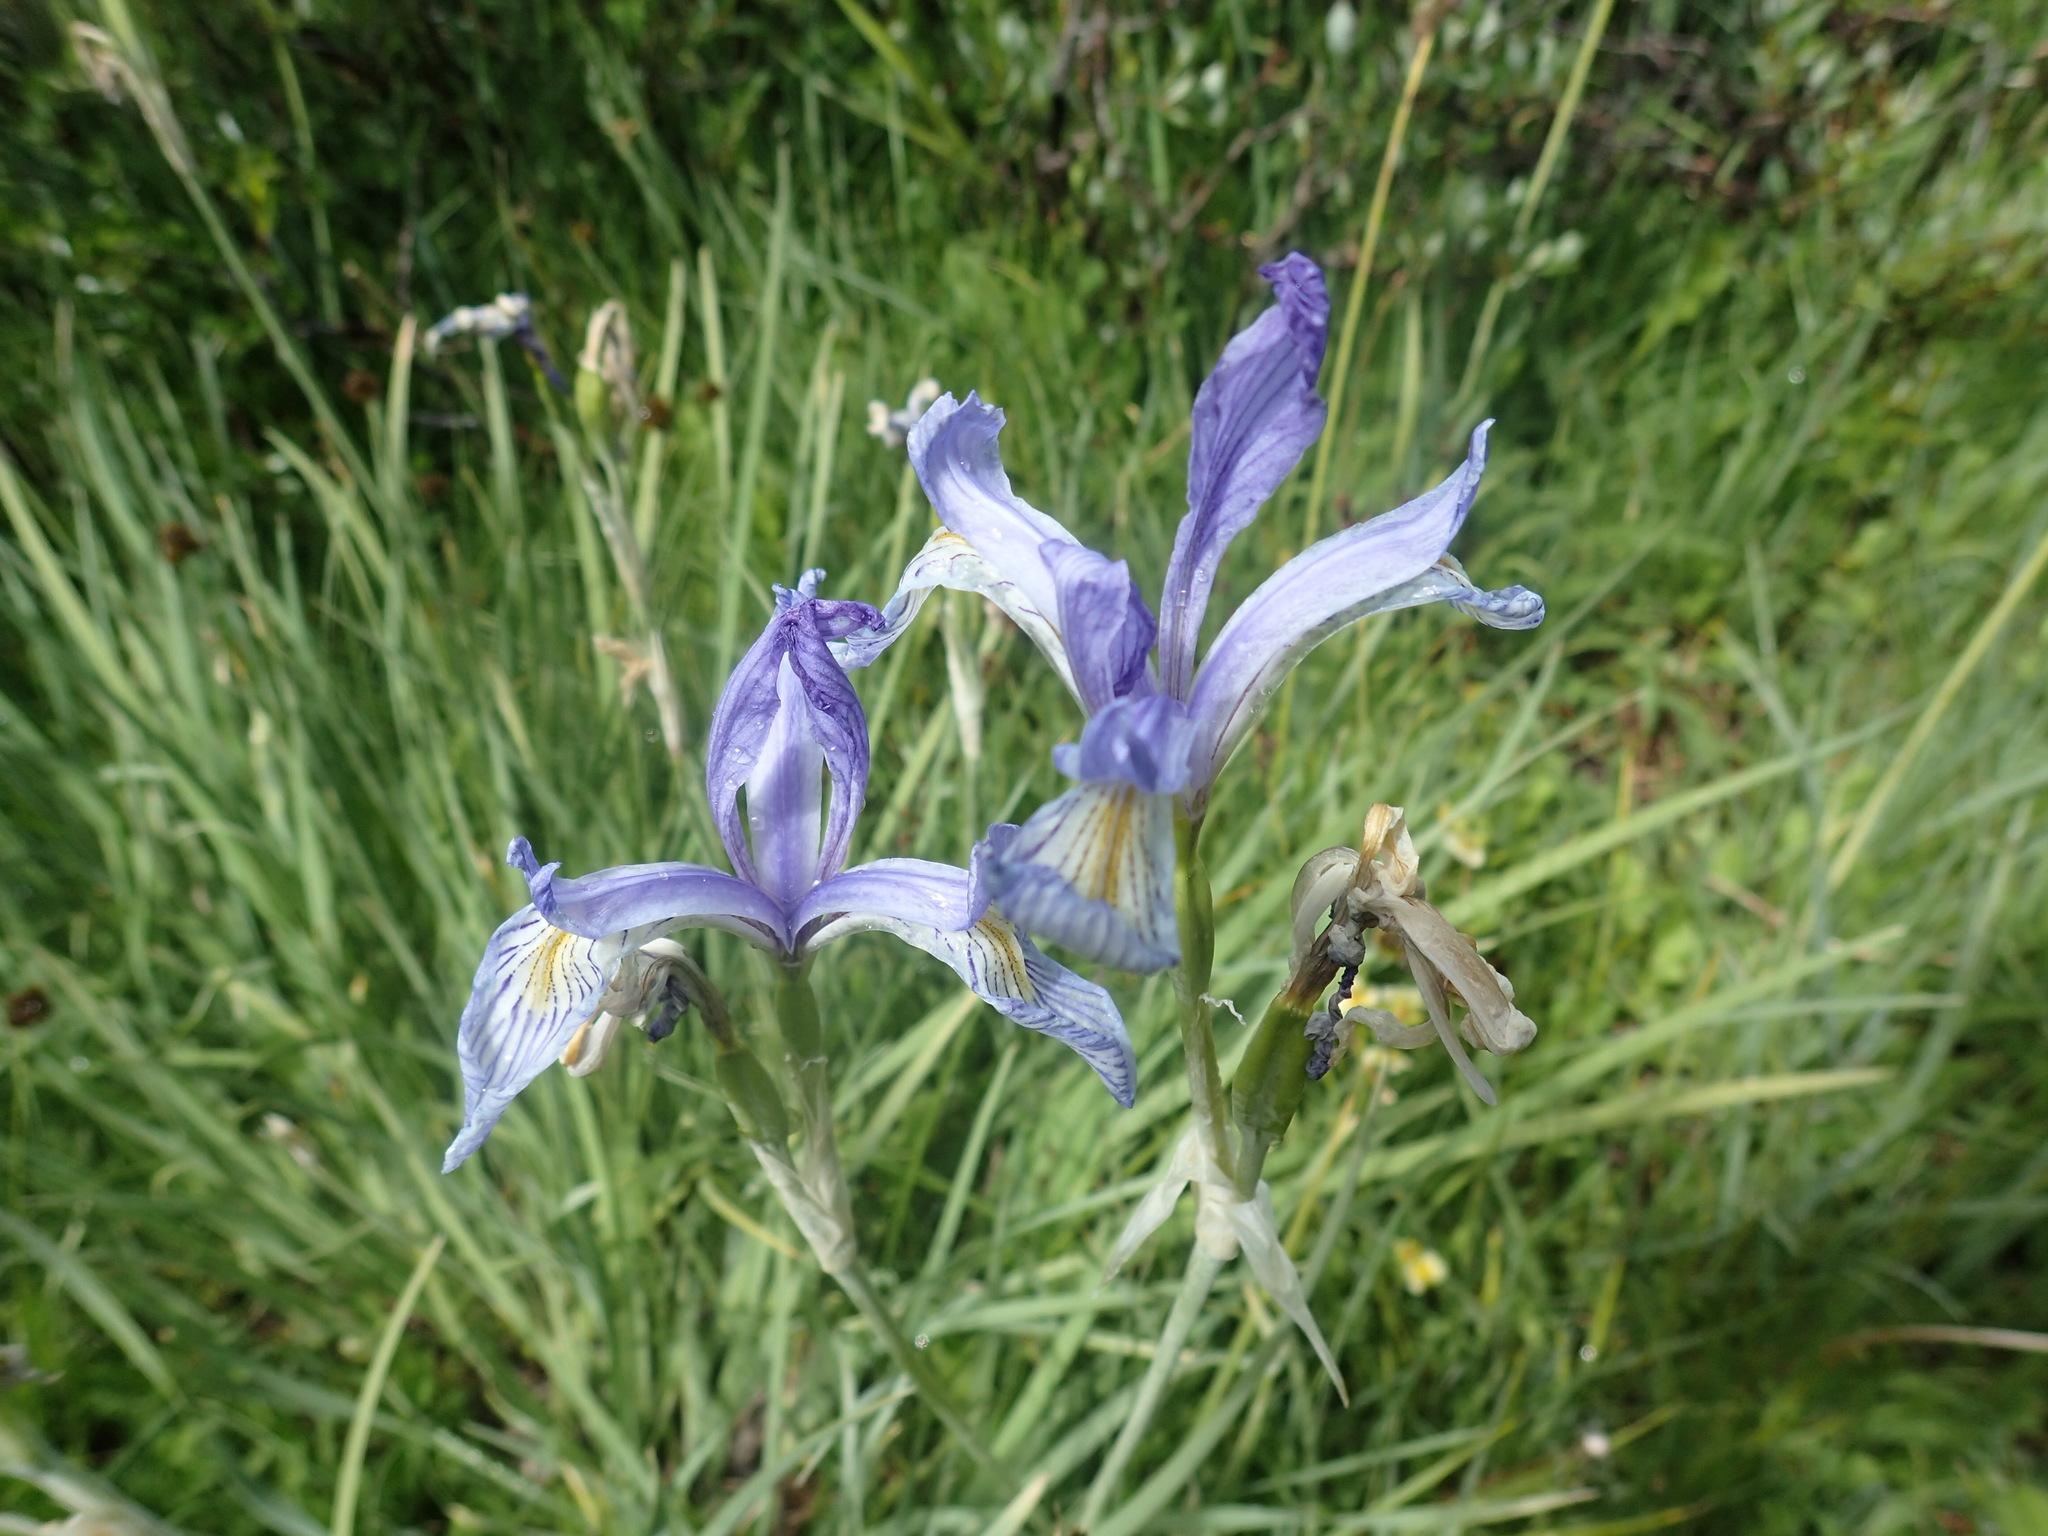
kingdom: Plantae
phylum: Tracheophyta
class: Liliopsida
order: Asparagales
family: Iridaceae
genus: Iris
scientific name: Iris missouriensis
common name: Rocky mountain iris
